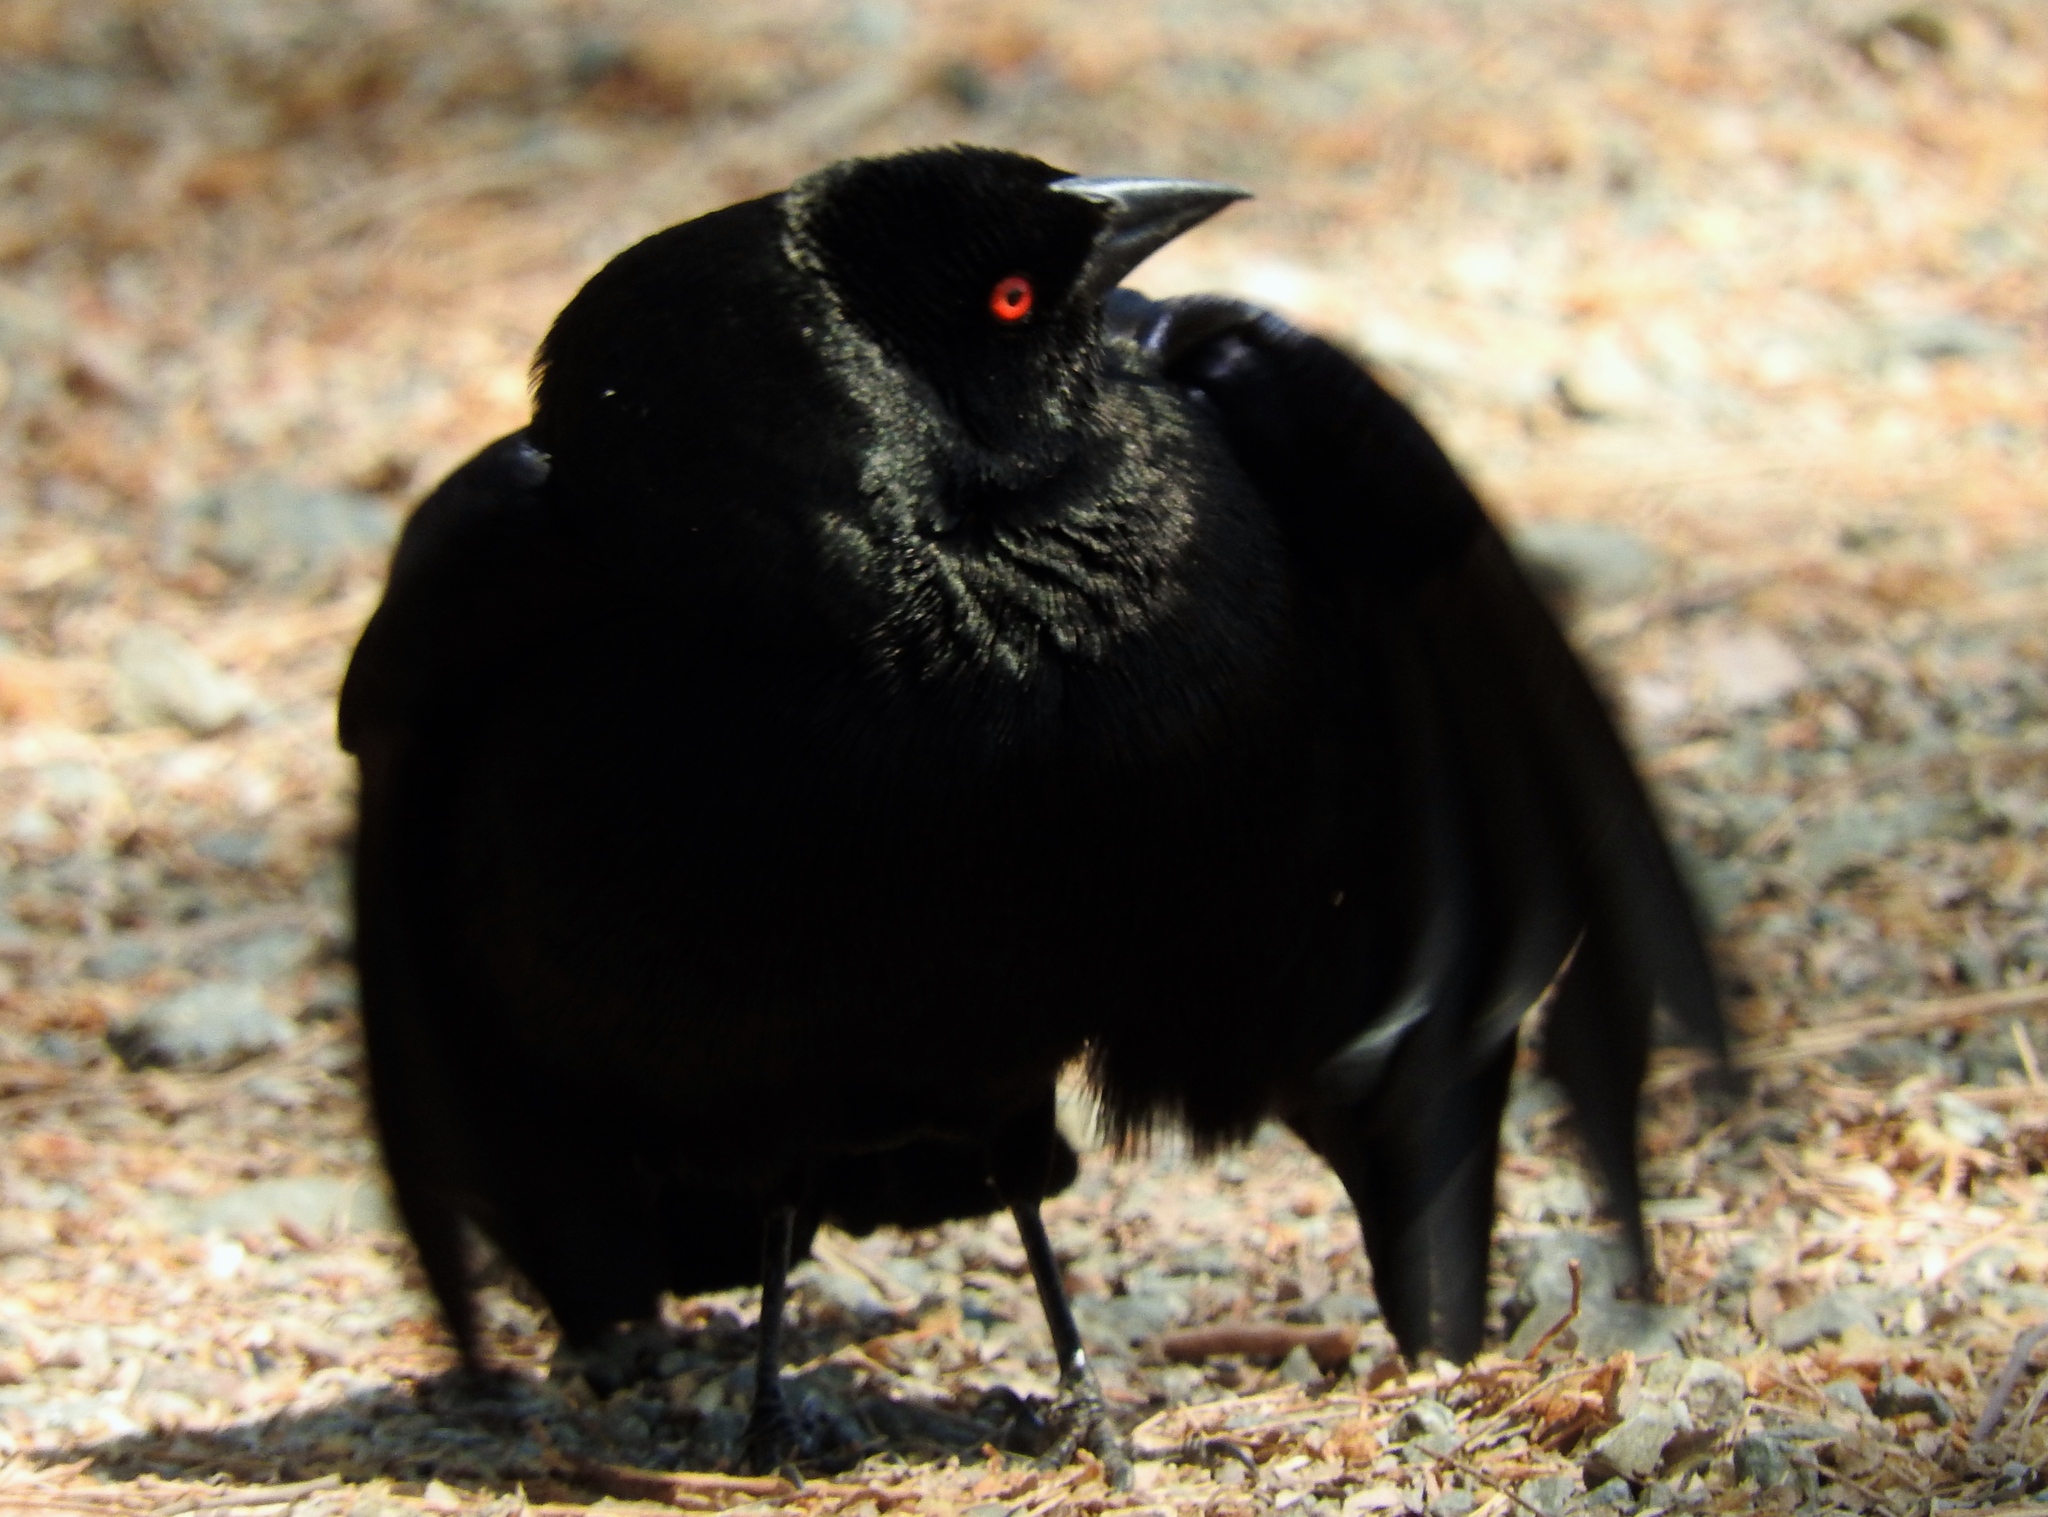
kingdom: Animalia
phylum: Chordata
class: Aves
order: Passeriformes
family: Icteridae
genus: Molothrus
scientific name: Molothrus aeneus
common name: Bronzed cowbird
